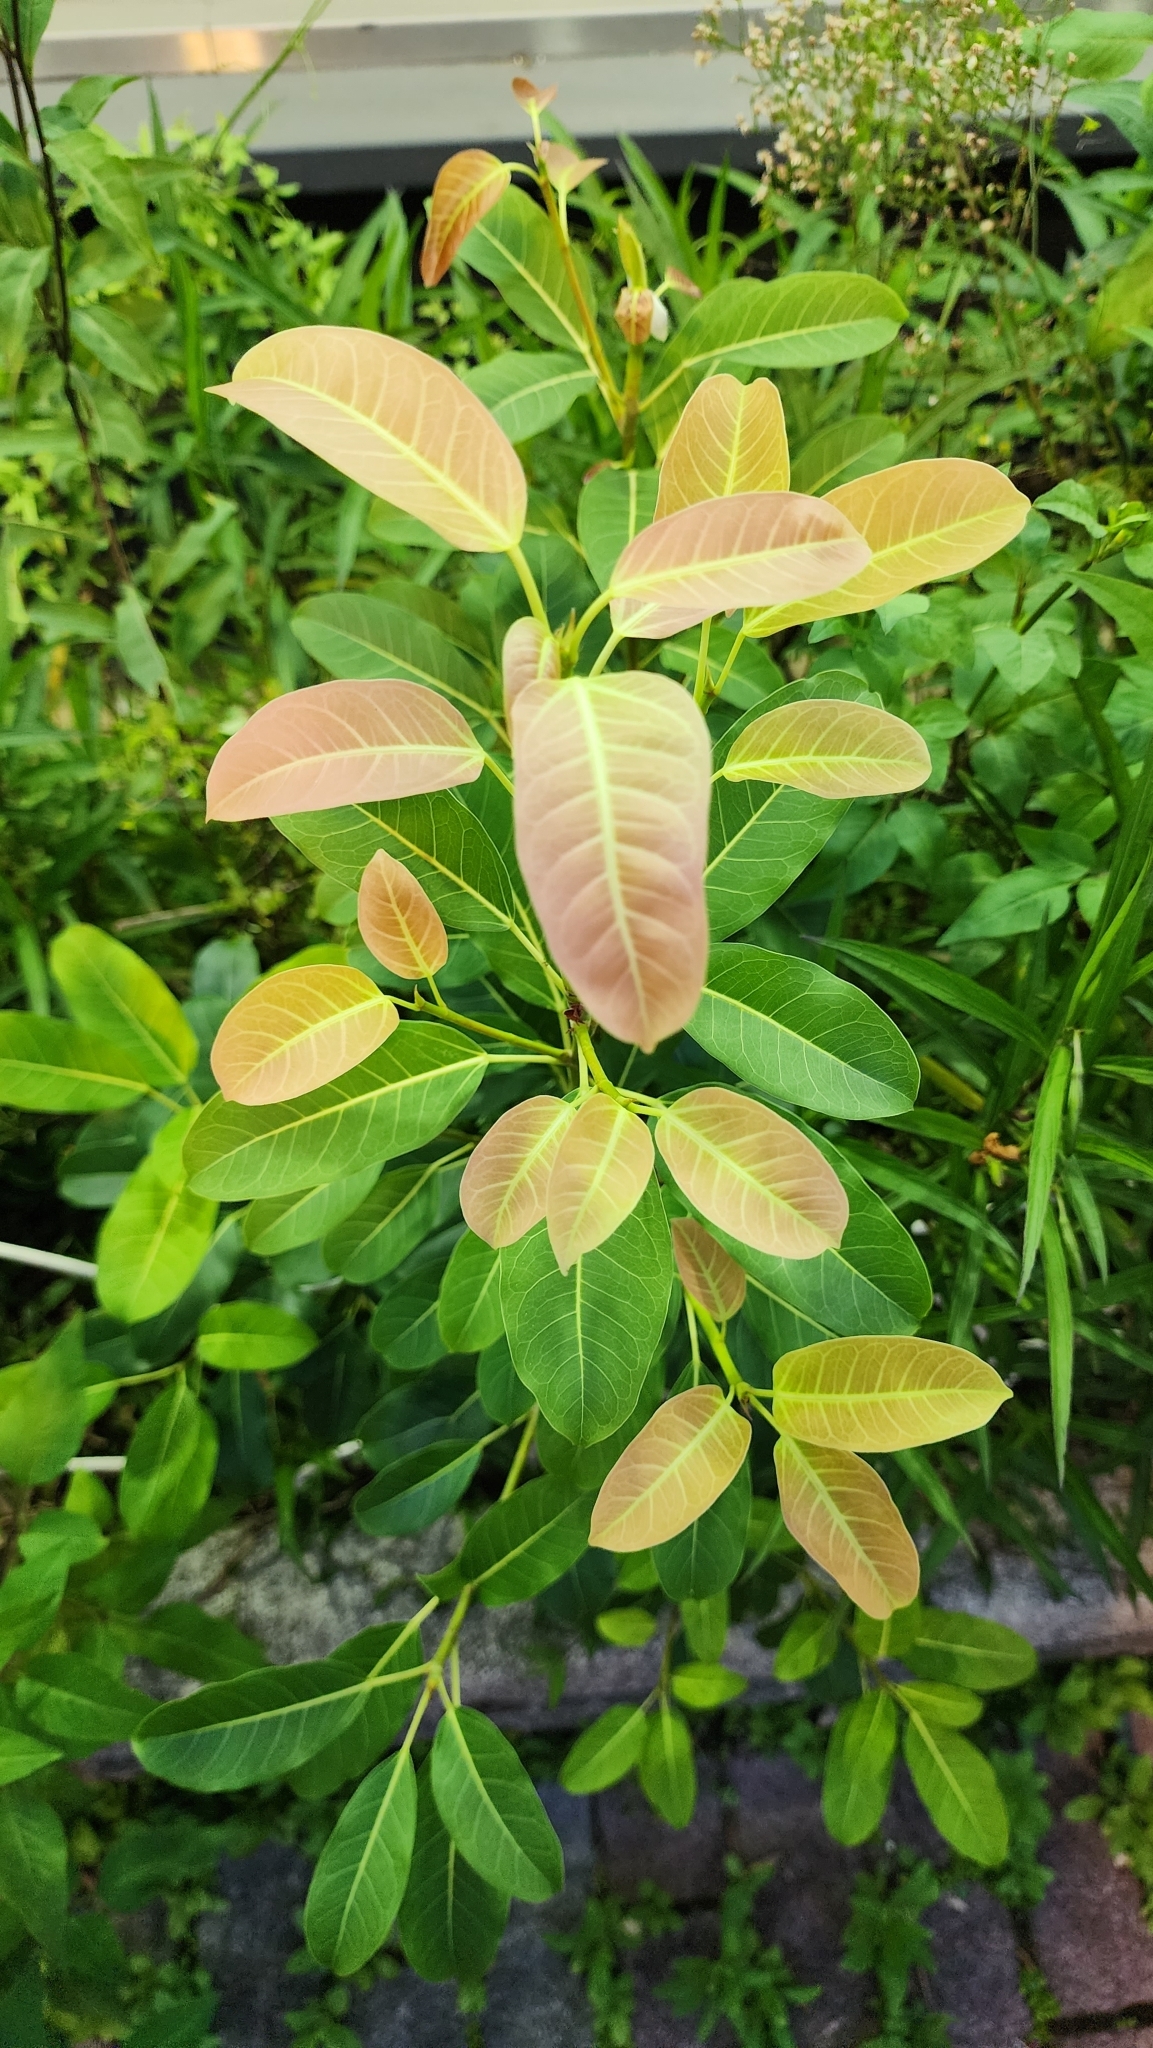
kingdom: Plantae
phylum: Tracheophyta
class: Magnoliopsida
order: Rosales
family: Moraceae
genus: Ficus
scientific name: Ficus subpisocarpa
